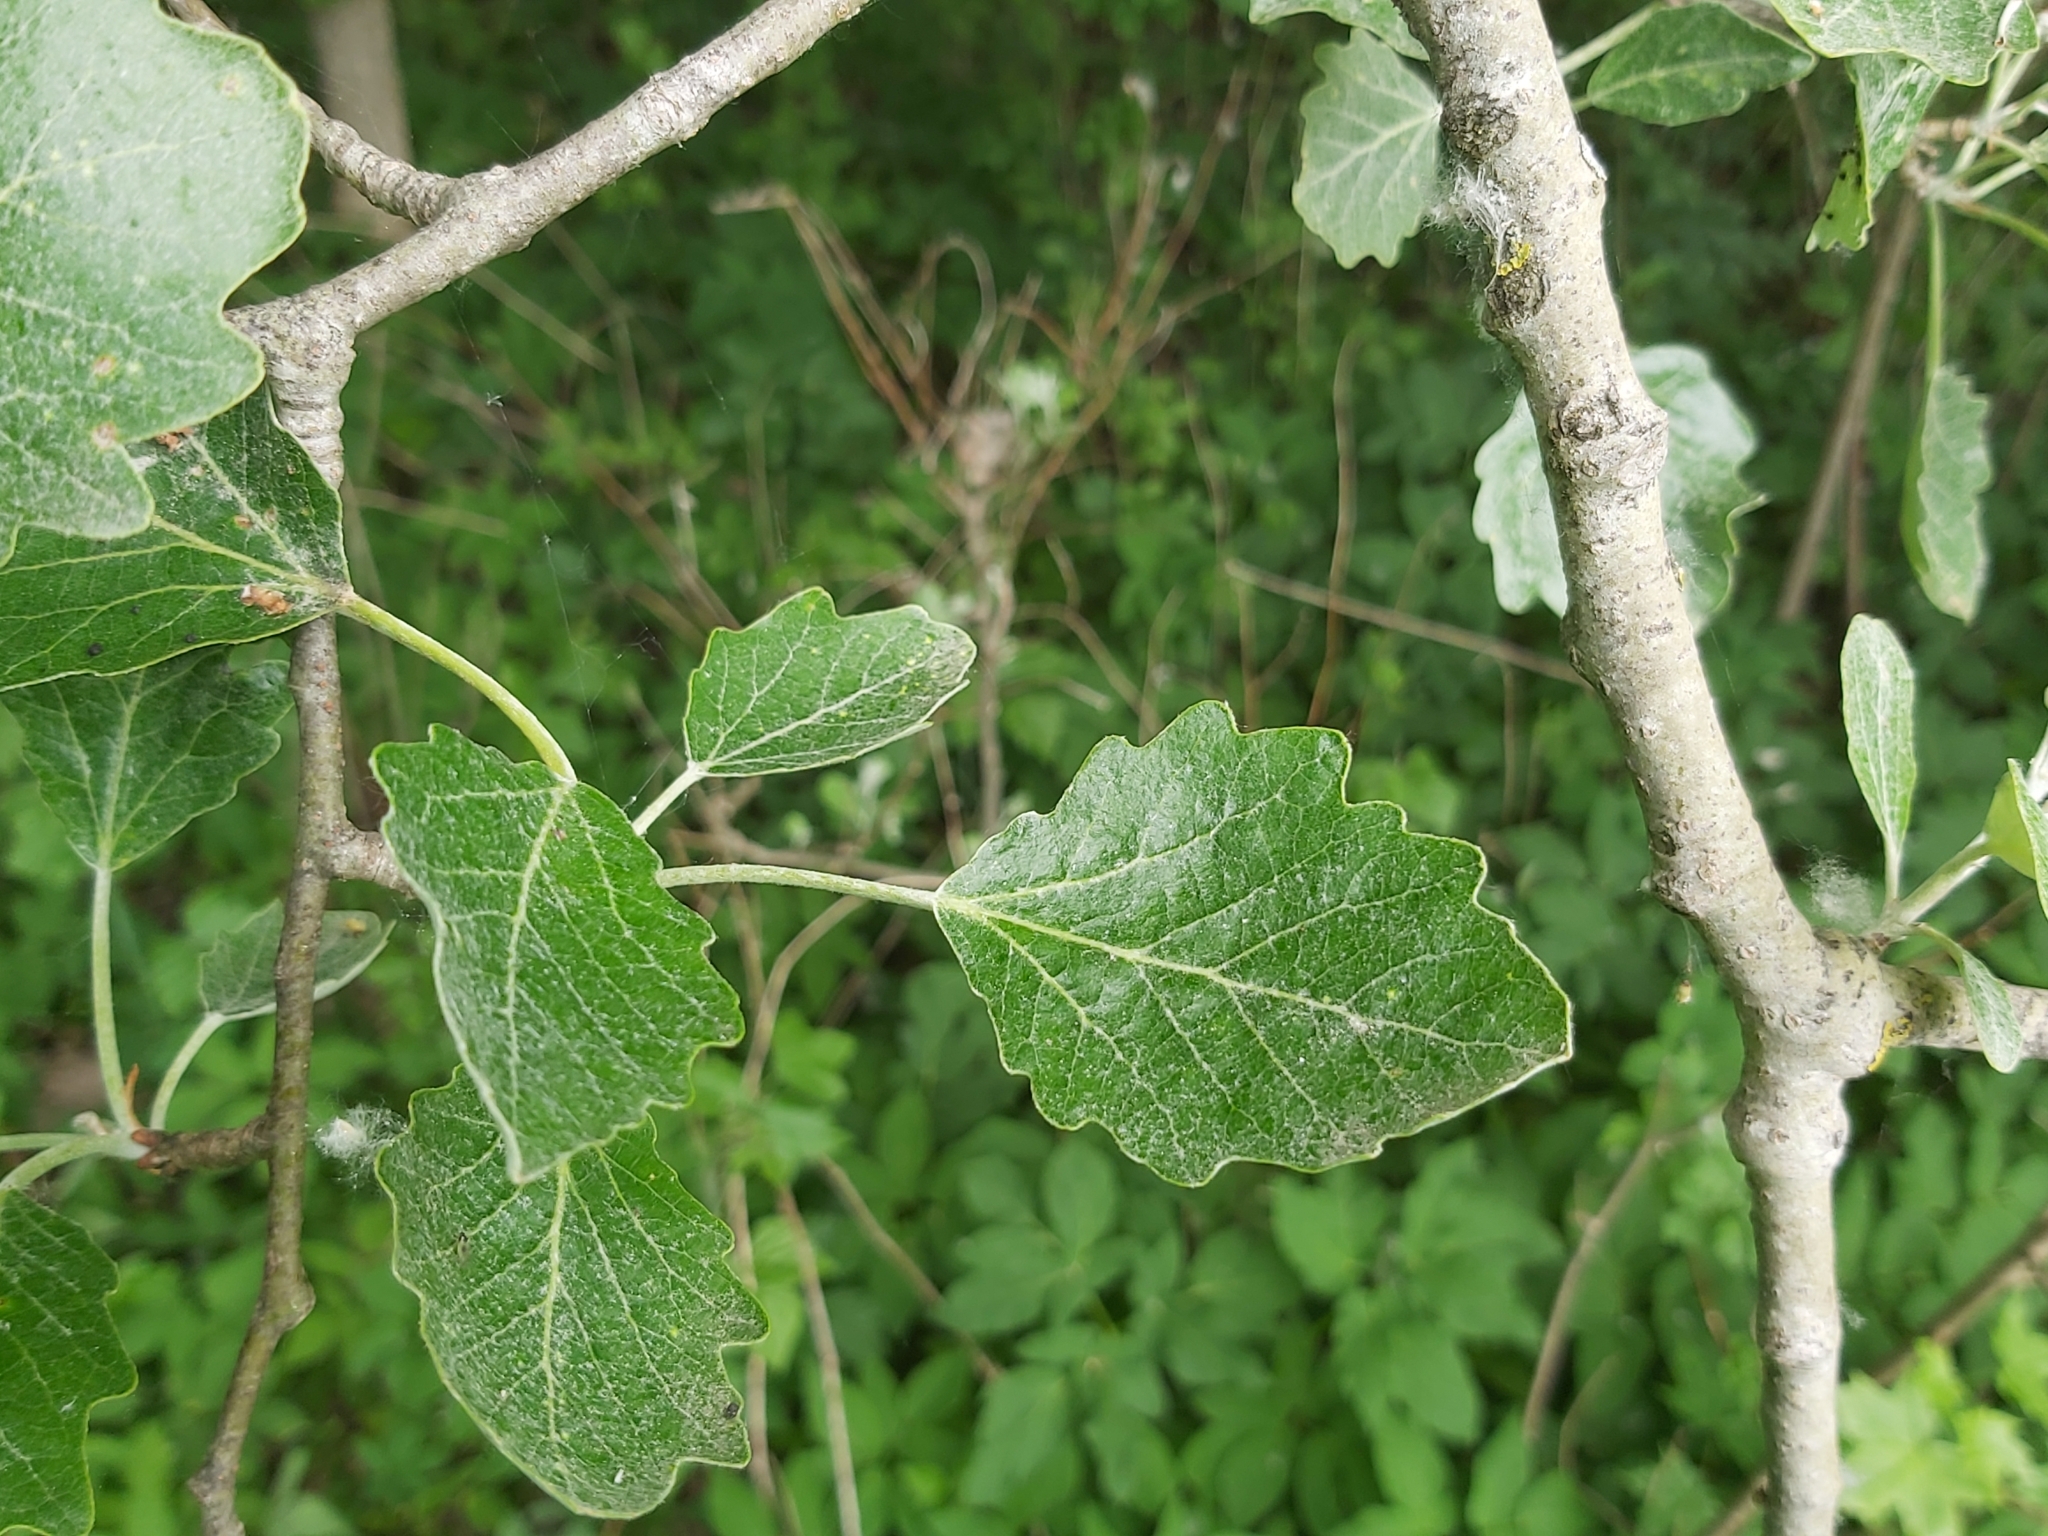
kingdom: Plantae
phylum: Tracheophyta
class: Magnoliopsida
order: Malpighiales
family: Salicaceae
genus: Populus
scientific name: Populus alba
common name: White poplar
